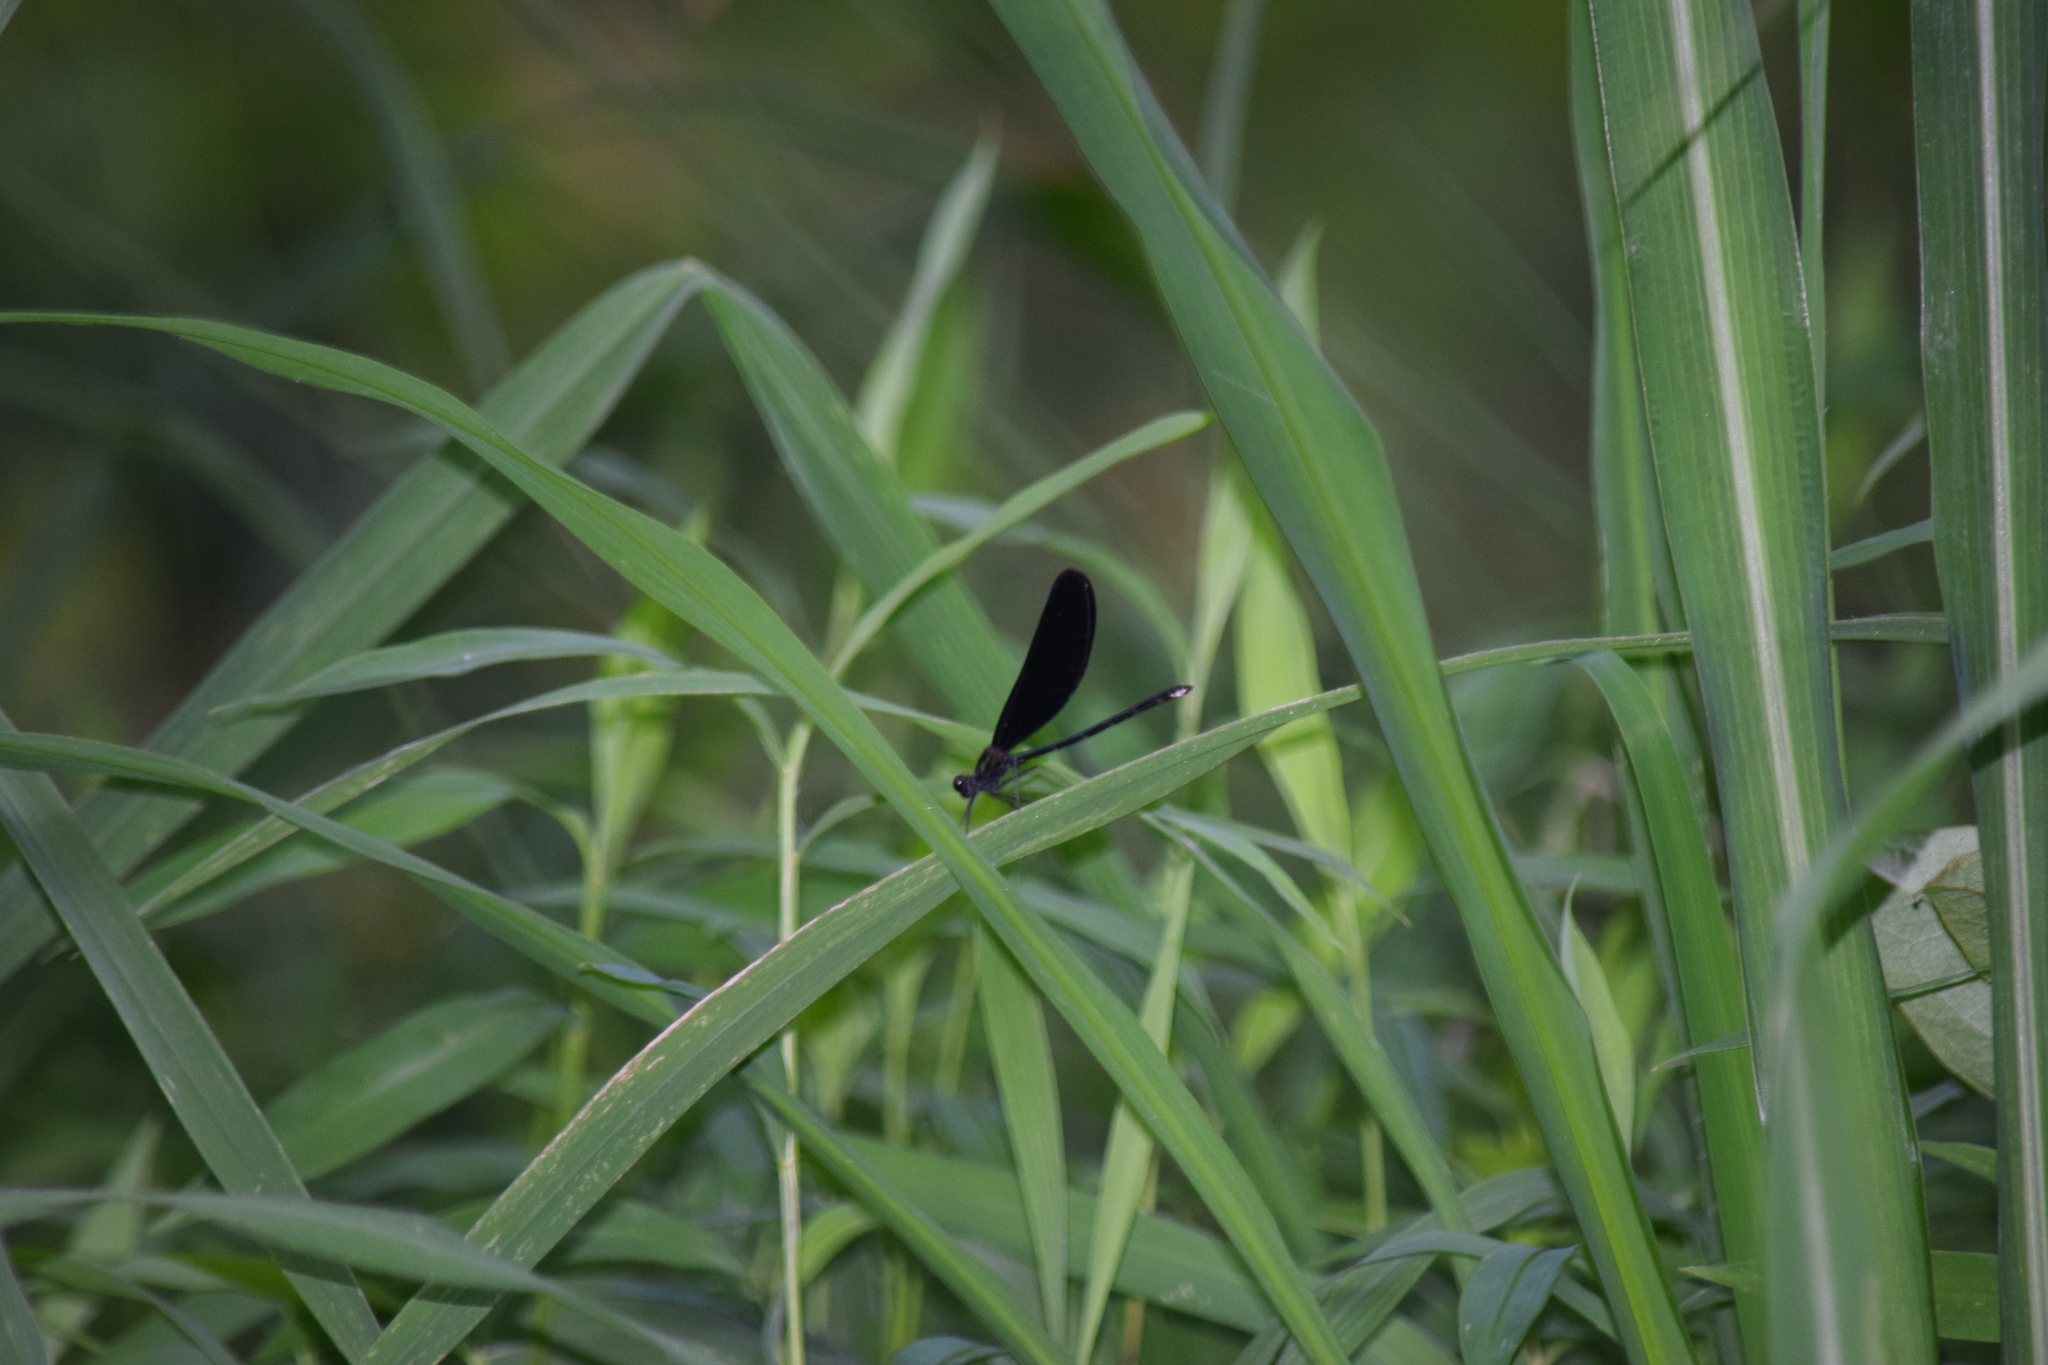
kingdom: Animalia
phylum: Arthropoda
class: Insecta
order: Odonata
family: Calopterygidae
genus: Calopteryx
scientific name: Calopteryx maculata
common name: Ebony jewelwing
